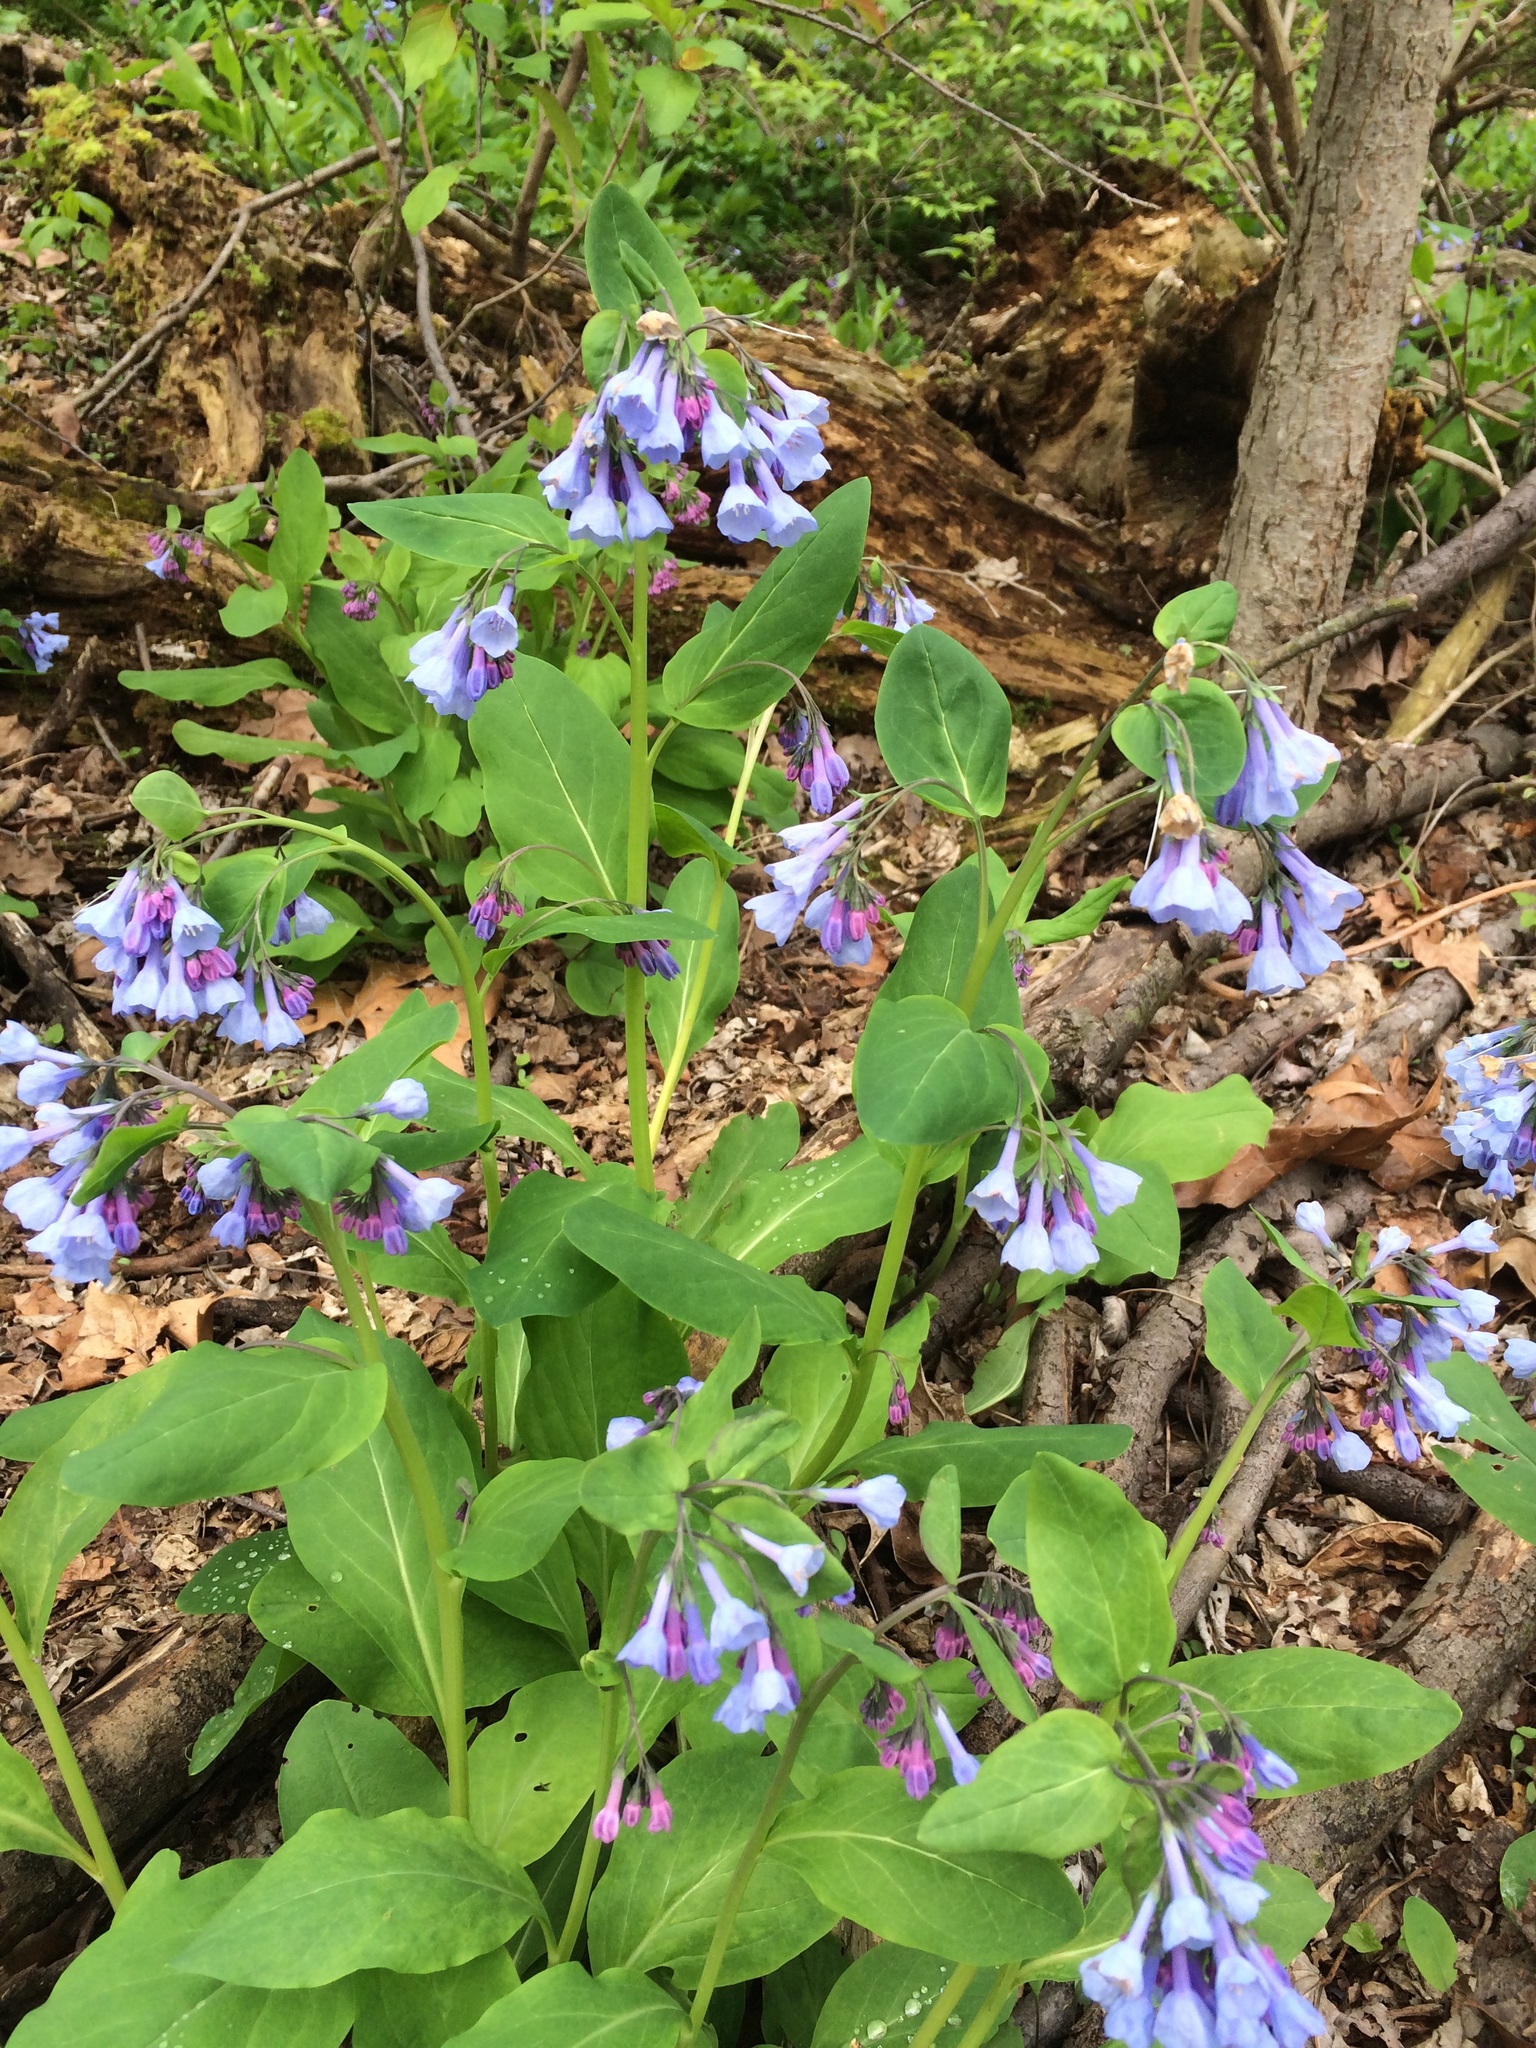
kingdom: Plantae
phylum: Tracheophyta
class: Magnoliopsida
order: Boraginales
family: Boraginaceae
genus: Mertensia
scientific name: Mertensia virginica
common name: Virginia bluebells
